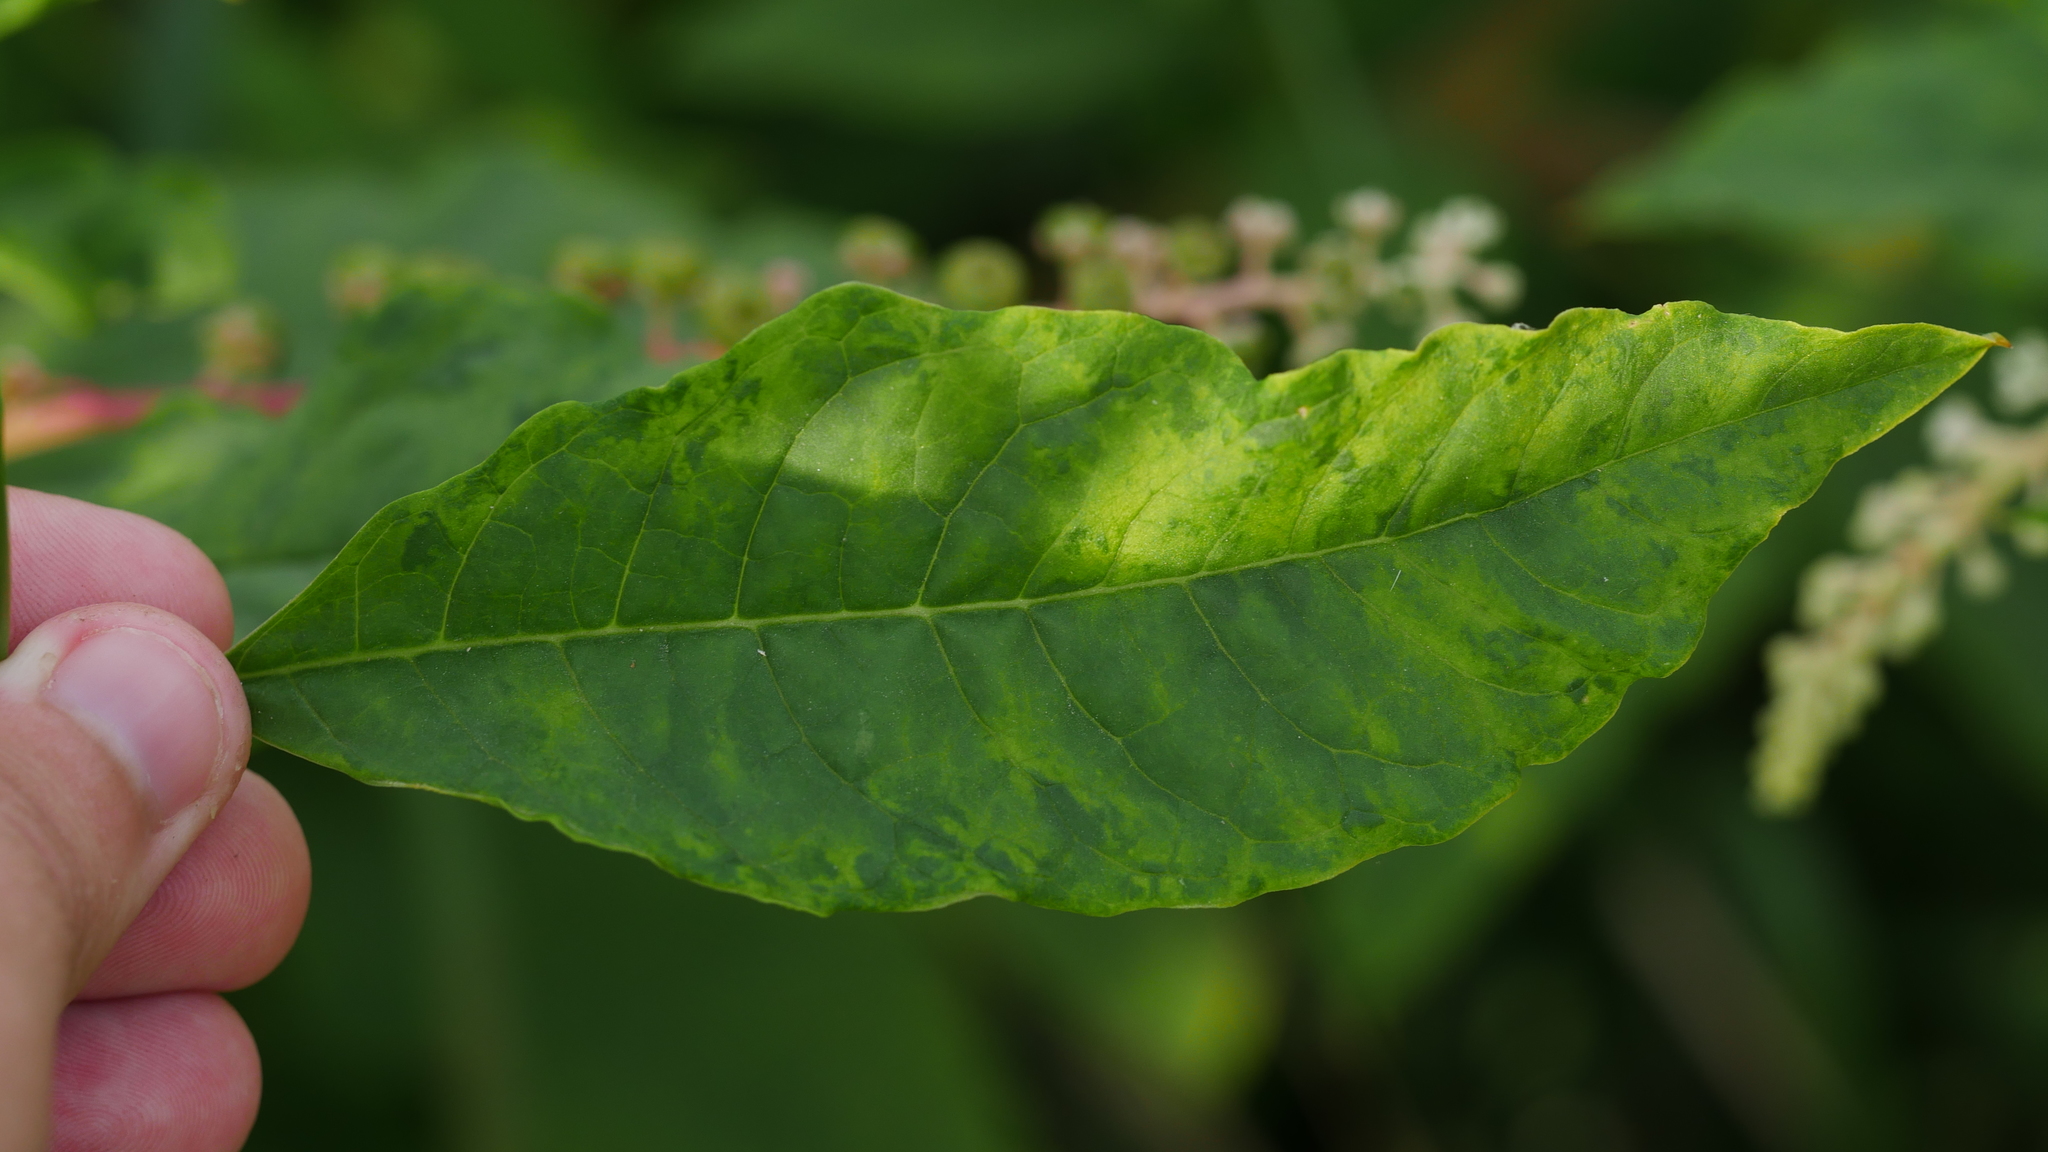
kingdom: Viruses
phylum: Pisuviricota
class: Stelpaviricetes
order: Patatavirales
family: Potyviridae
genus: Potyvirus
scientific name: Potyvirus Pokeweed mosaic virus
